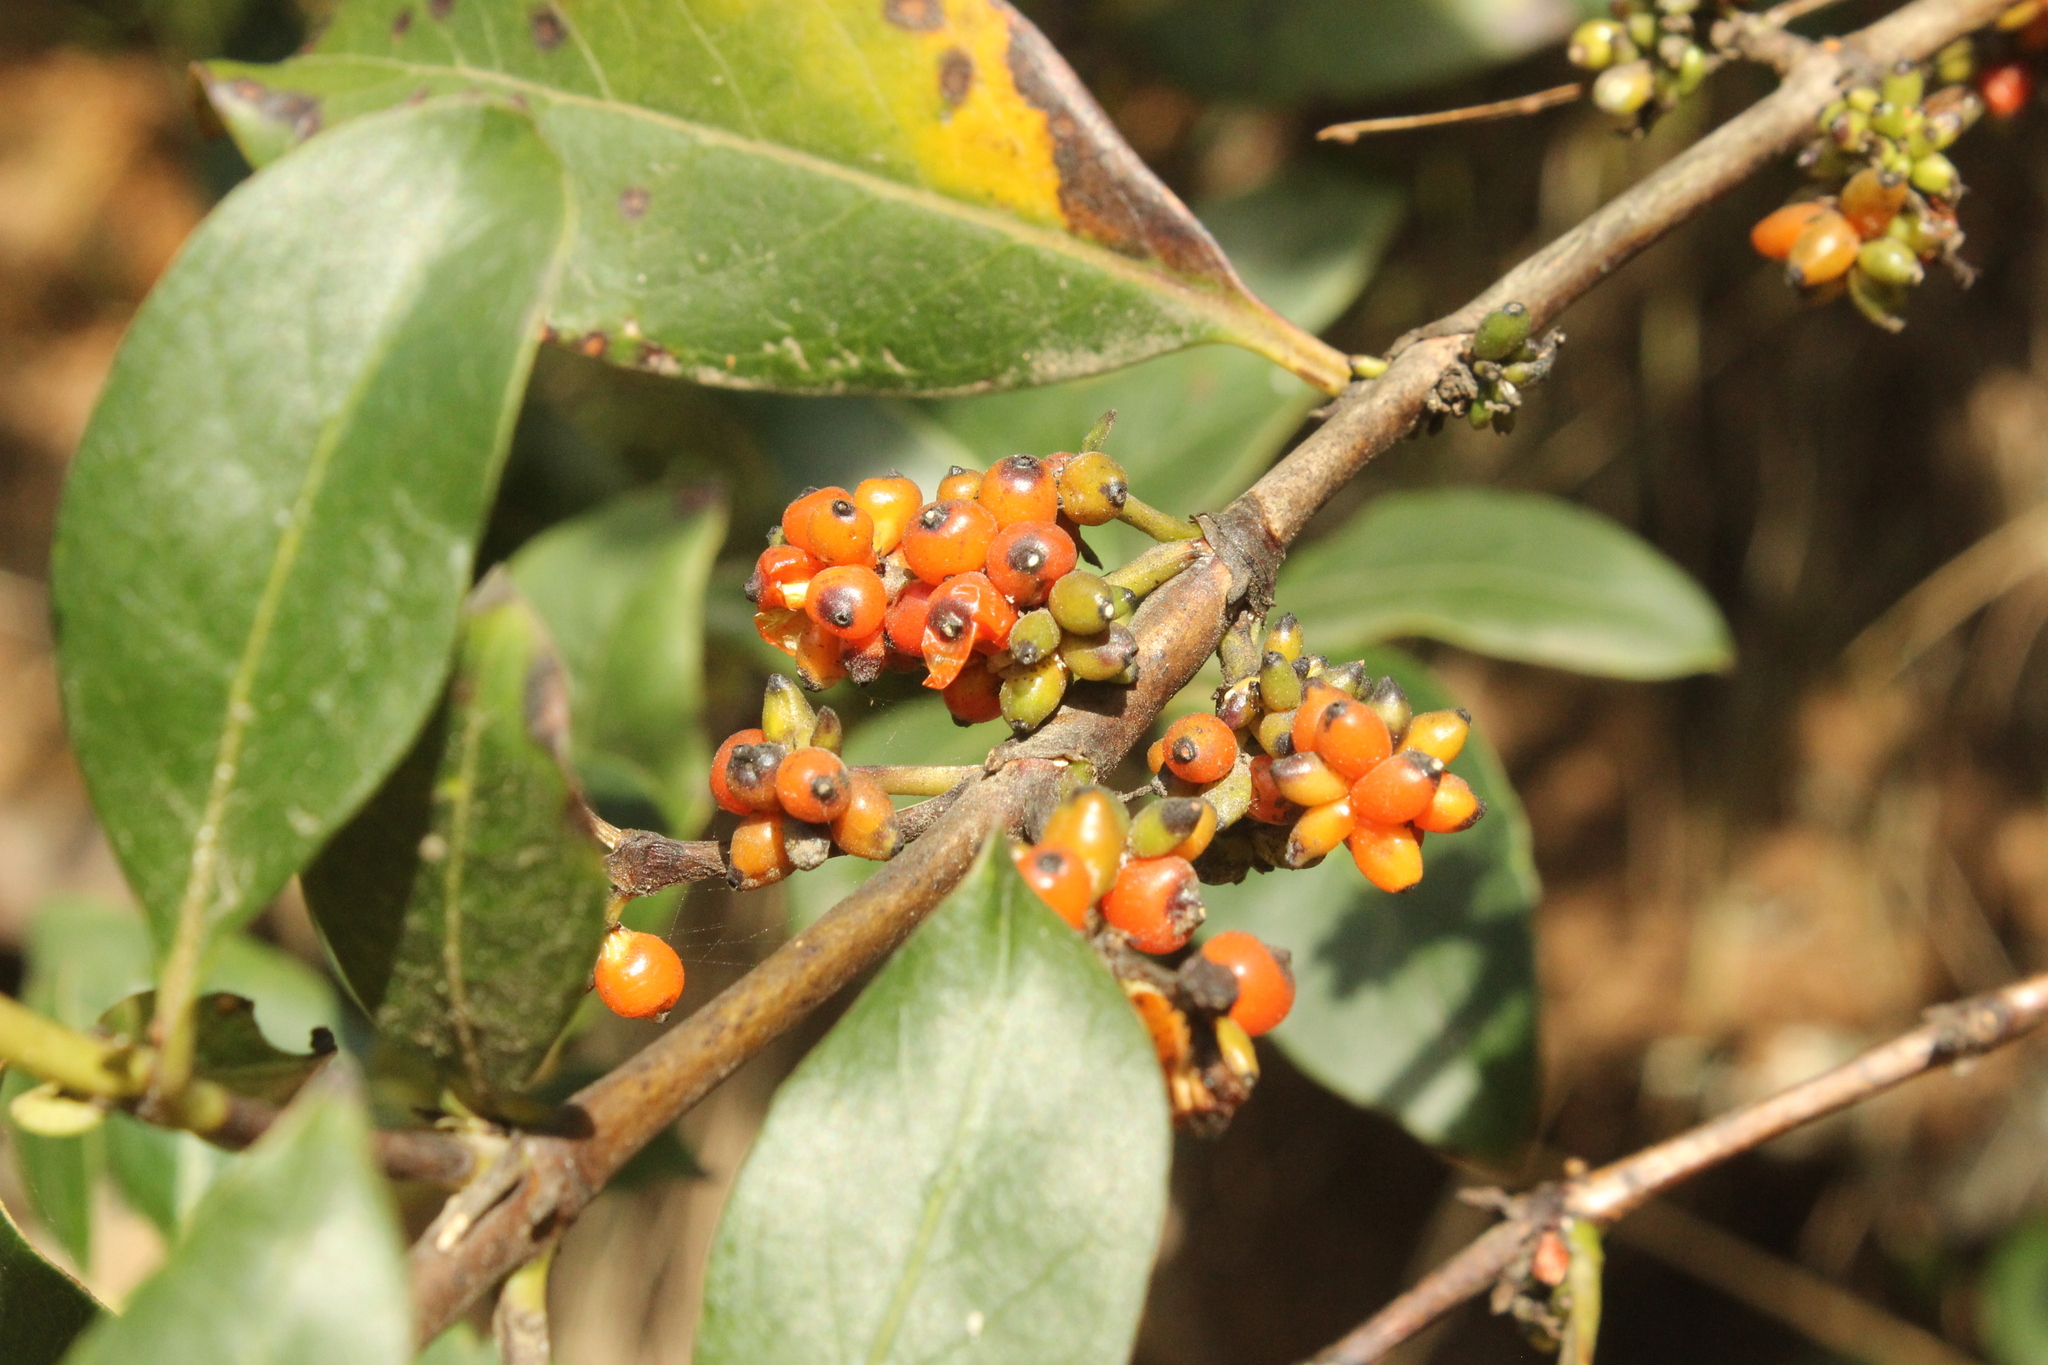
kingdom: Plantae
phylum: Tracheophyta
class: Magnoliopsida
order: Gentianales
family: Rubiaceae
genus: Coprosma
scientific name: Coprosma robusta
